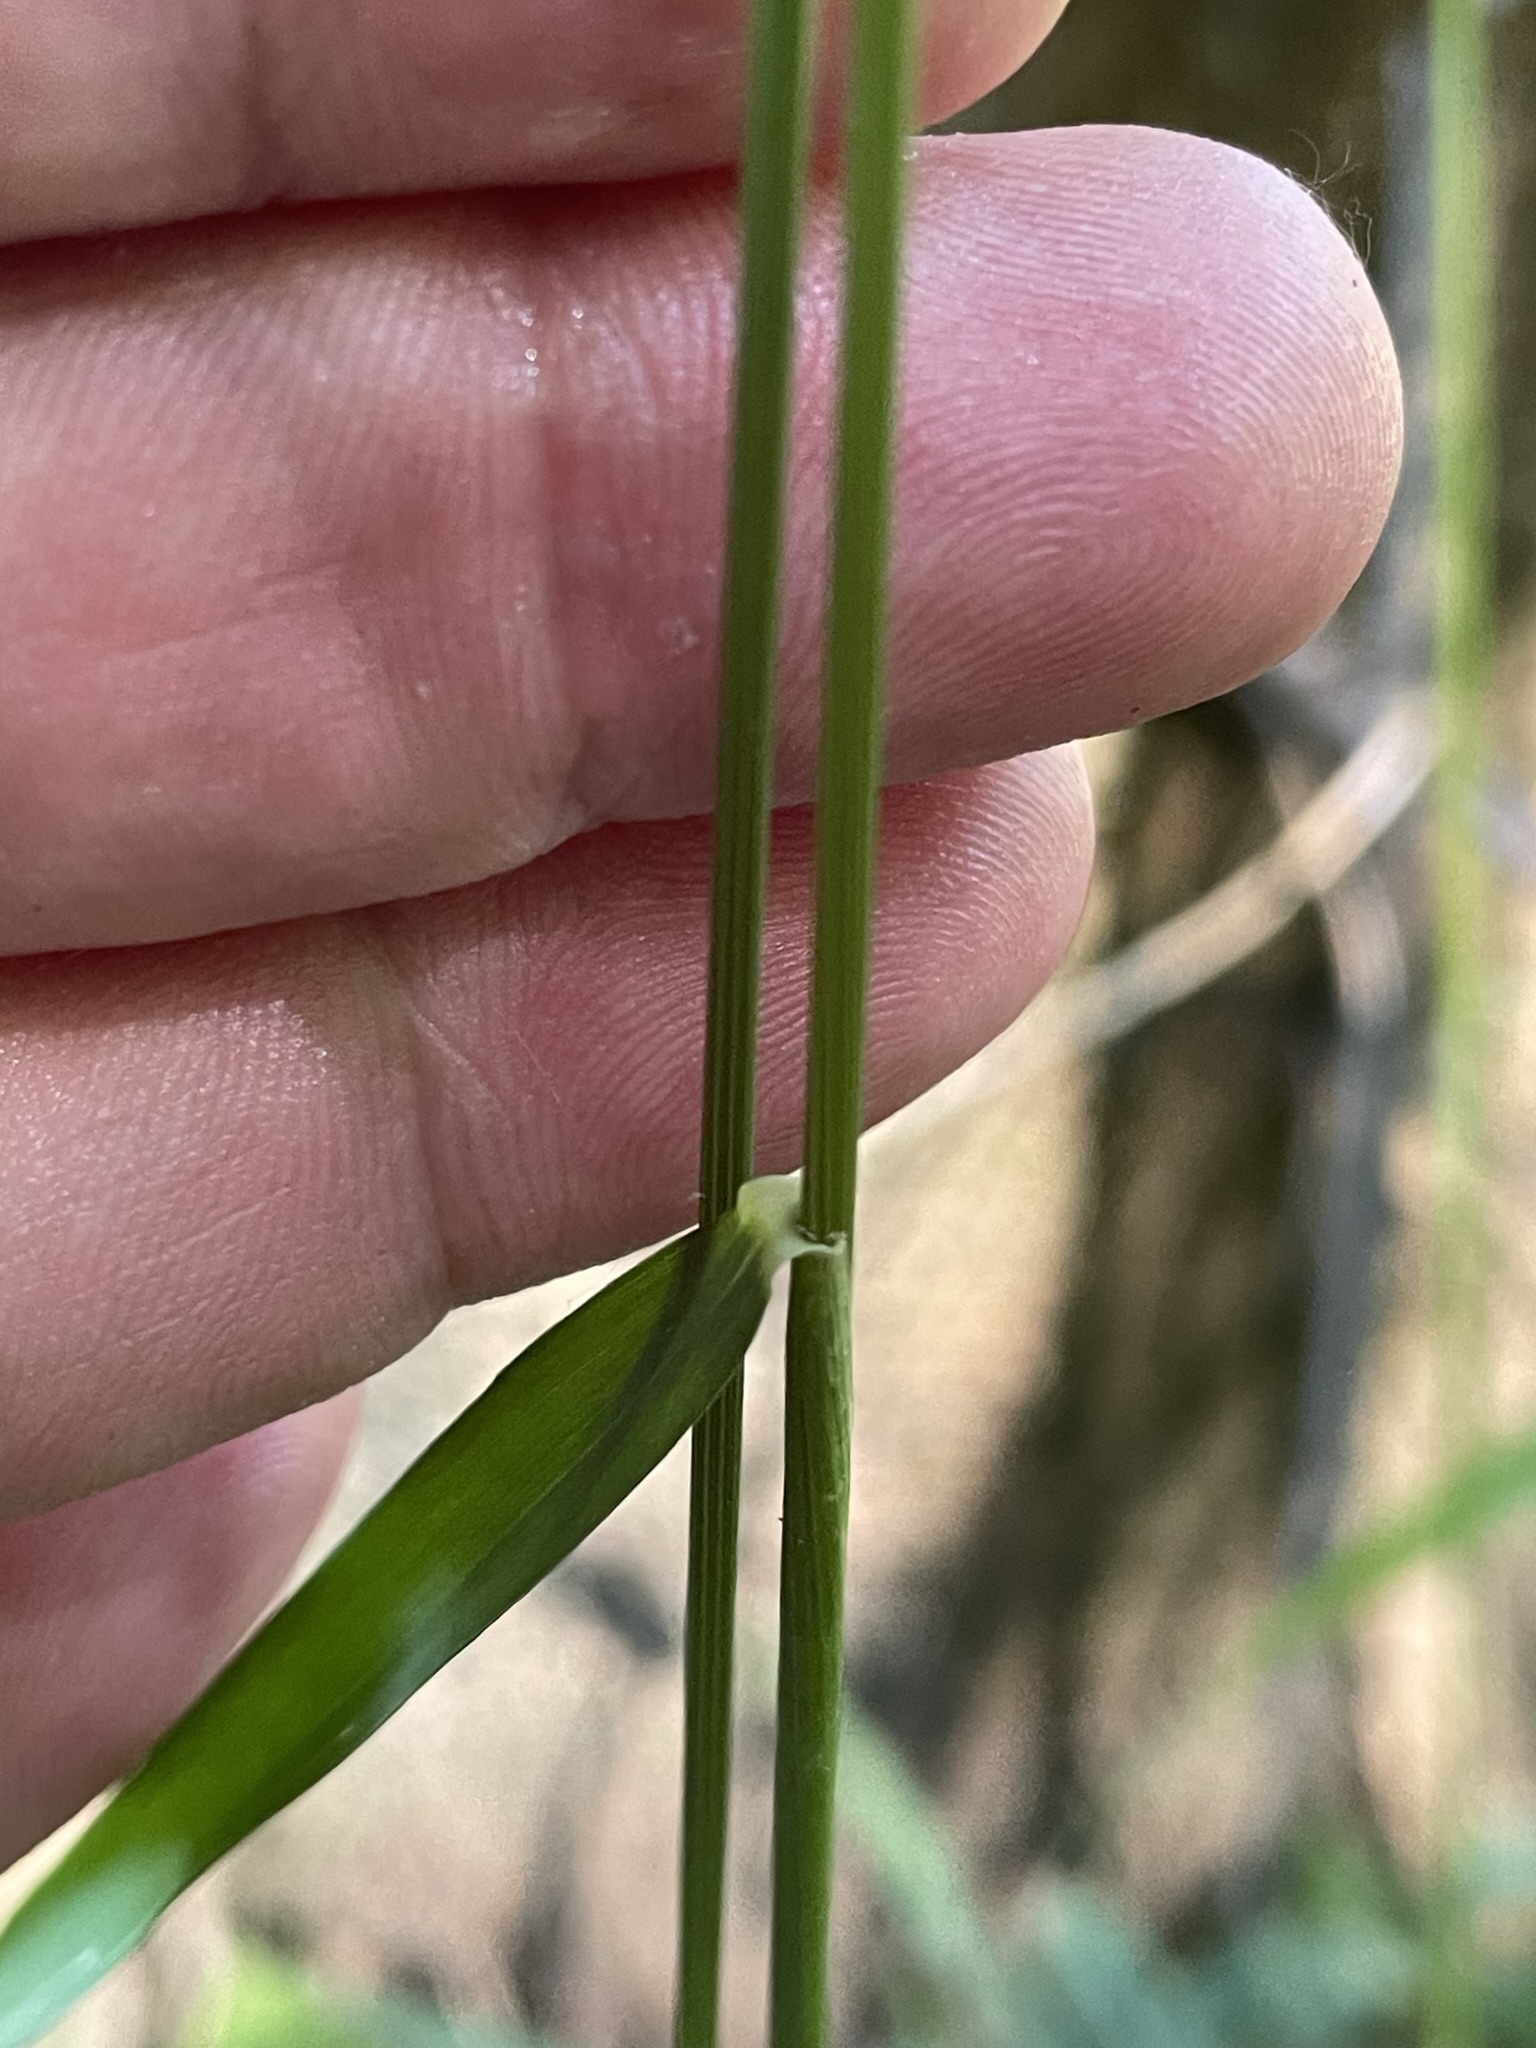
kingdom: Plantae
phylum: Tracheophyta
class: Liliopsida
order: Poales
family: Poaceae
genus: Hordelymus
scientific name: Hordelymus europaeus
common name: Wood-barley
